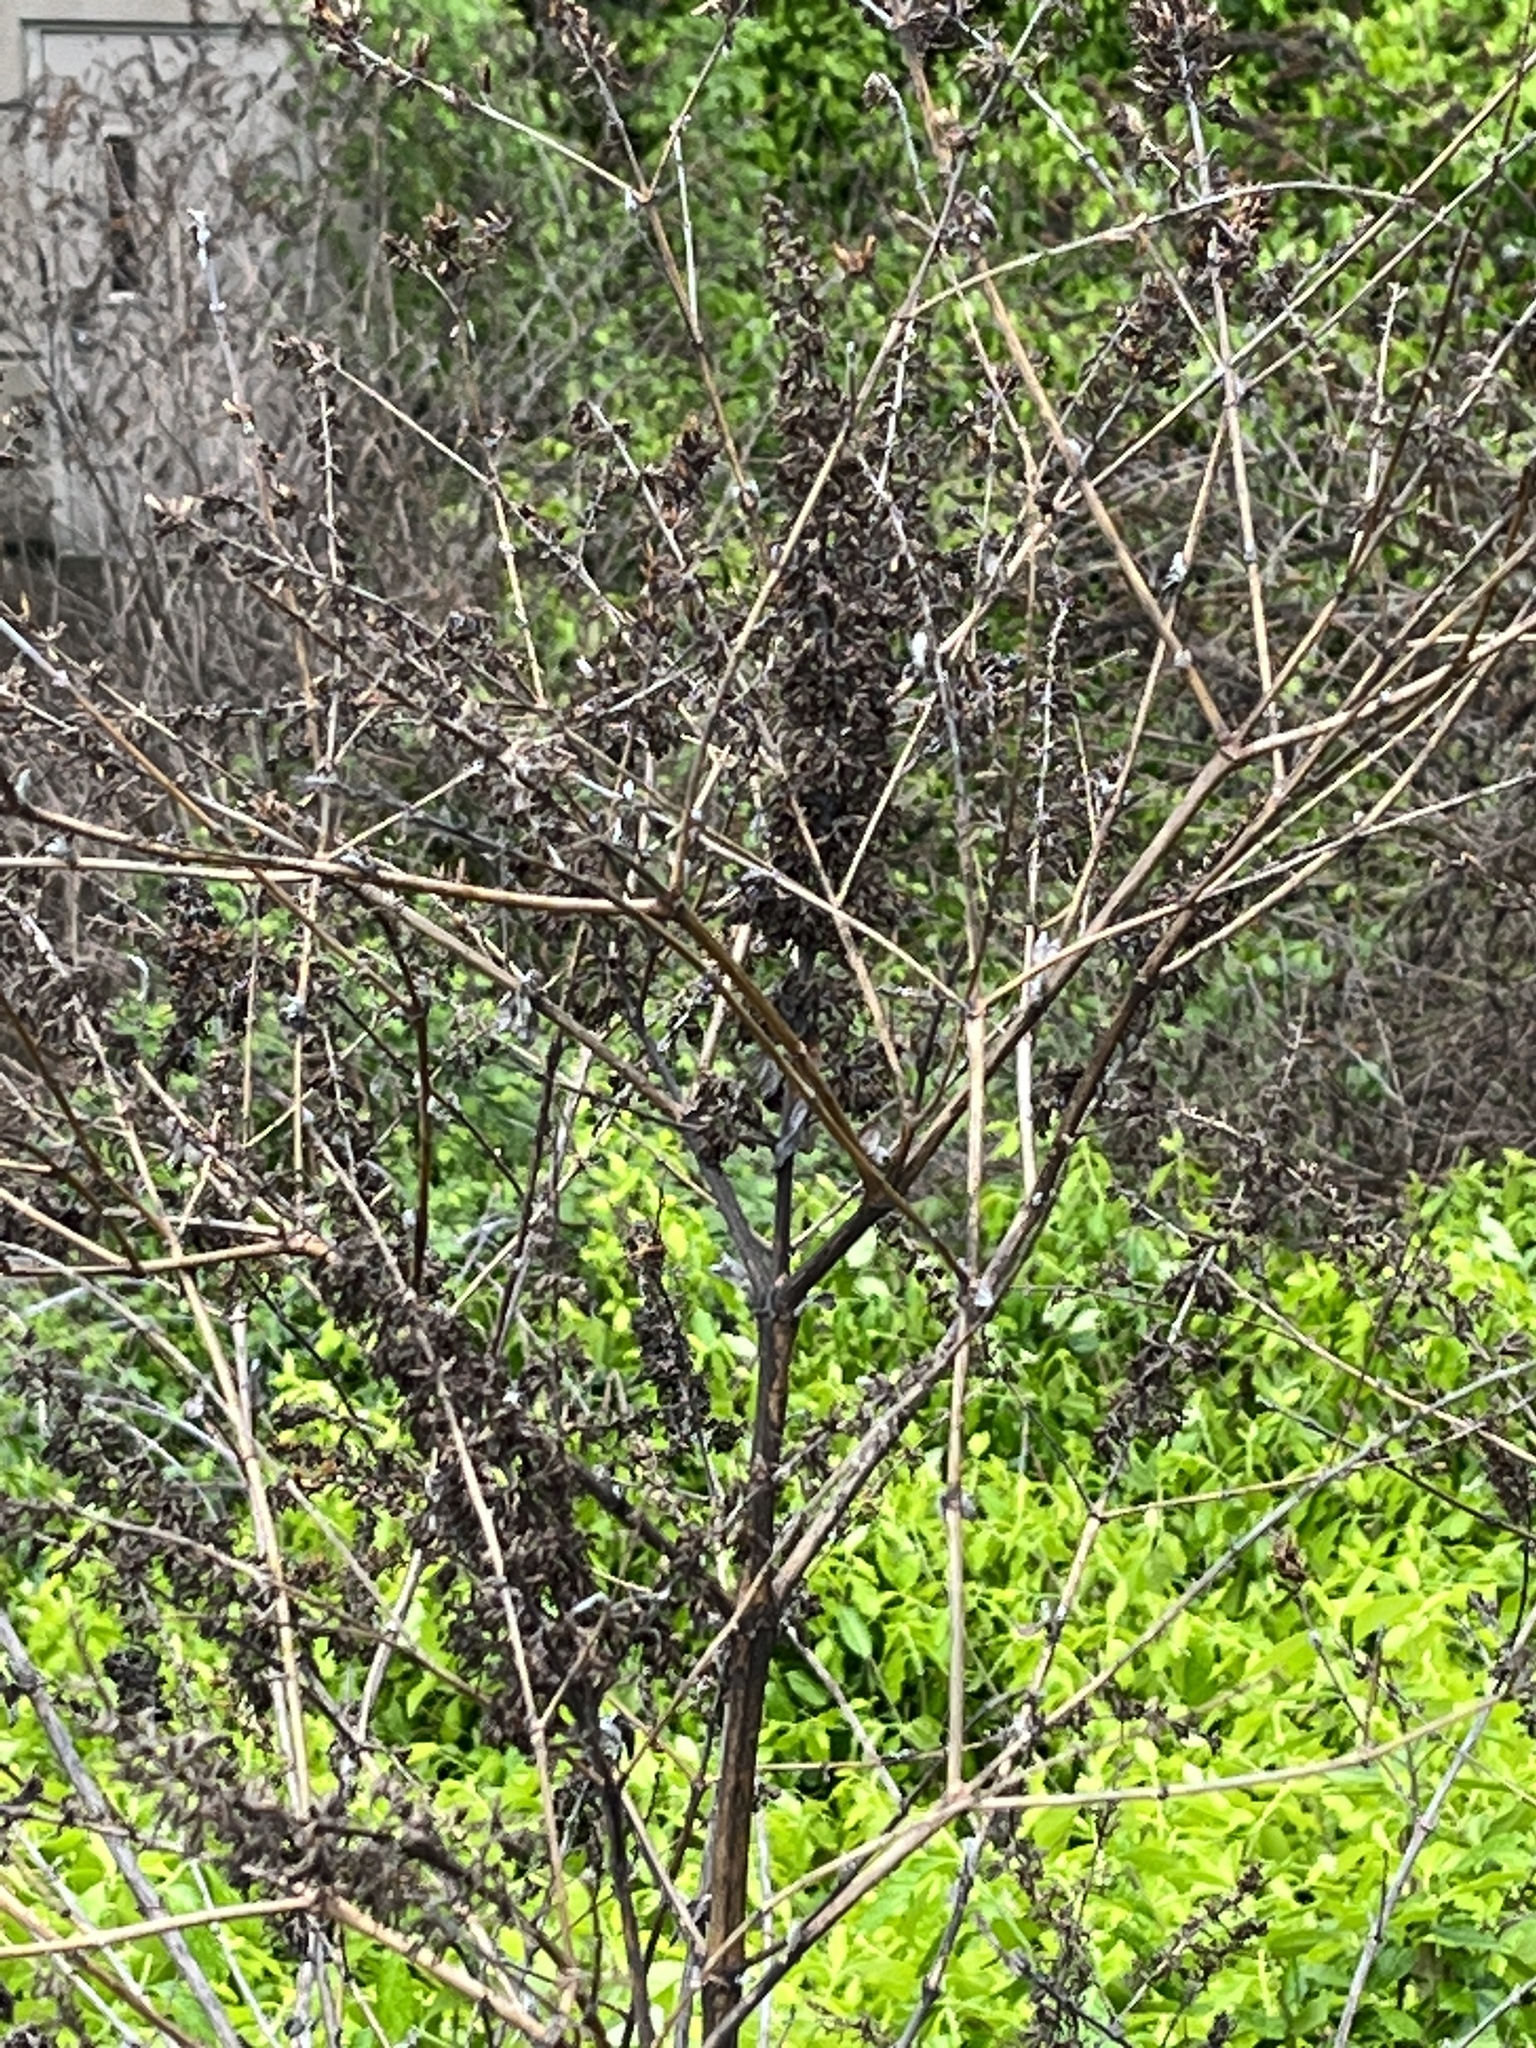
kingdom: Plantae
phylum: Tracheophyta
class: Magnoliopsida
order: Lamiales
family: Scrophulariaceae
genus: Buddleja
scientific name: Buddleja davidii
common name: Butterfly-bush
